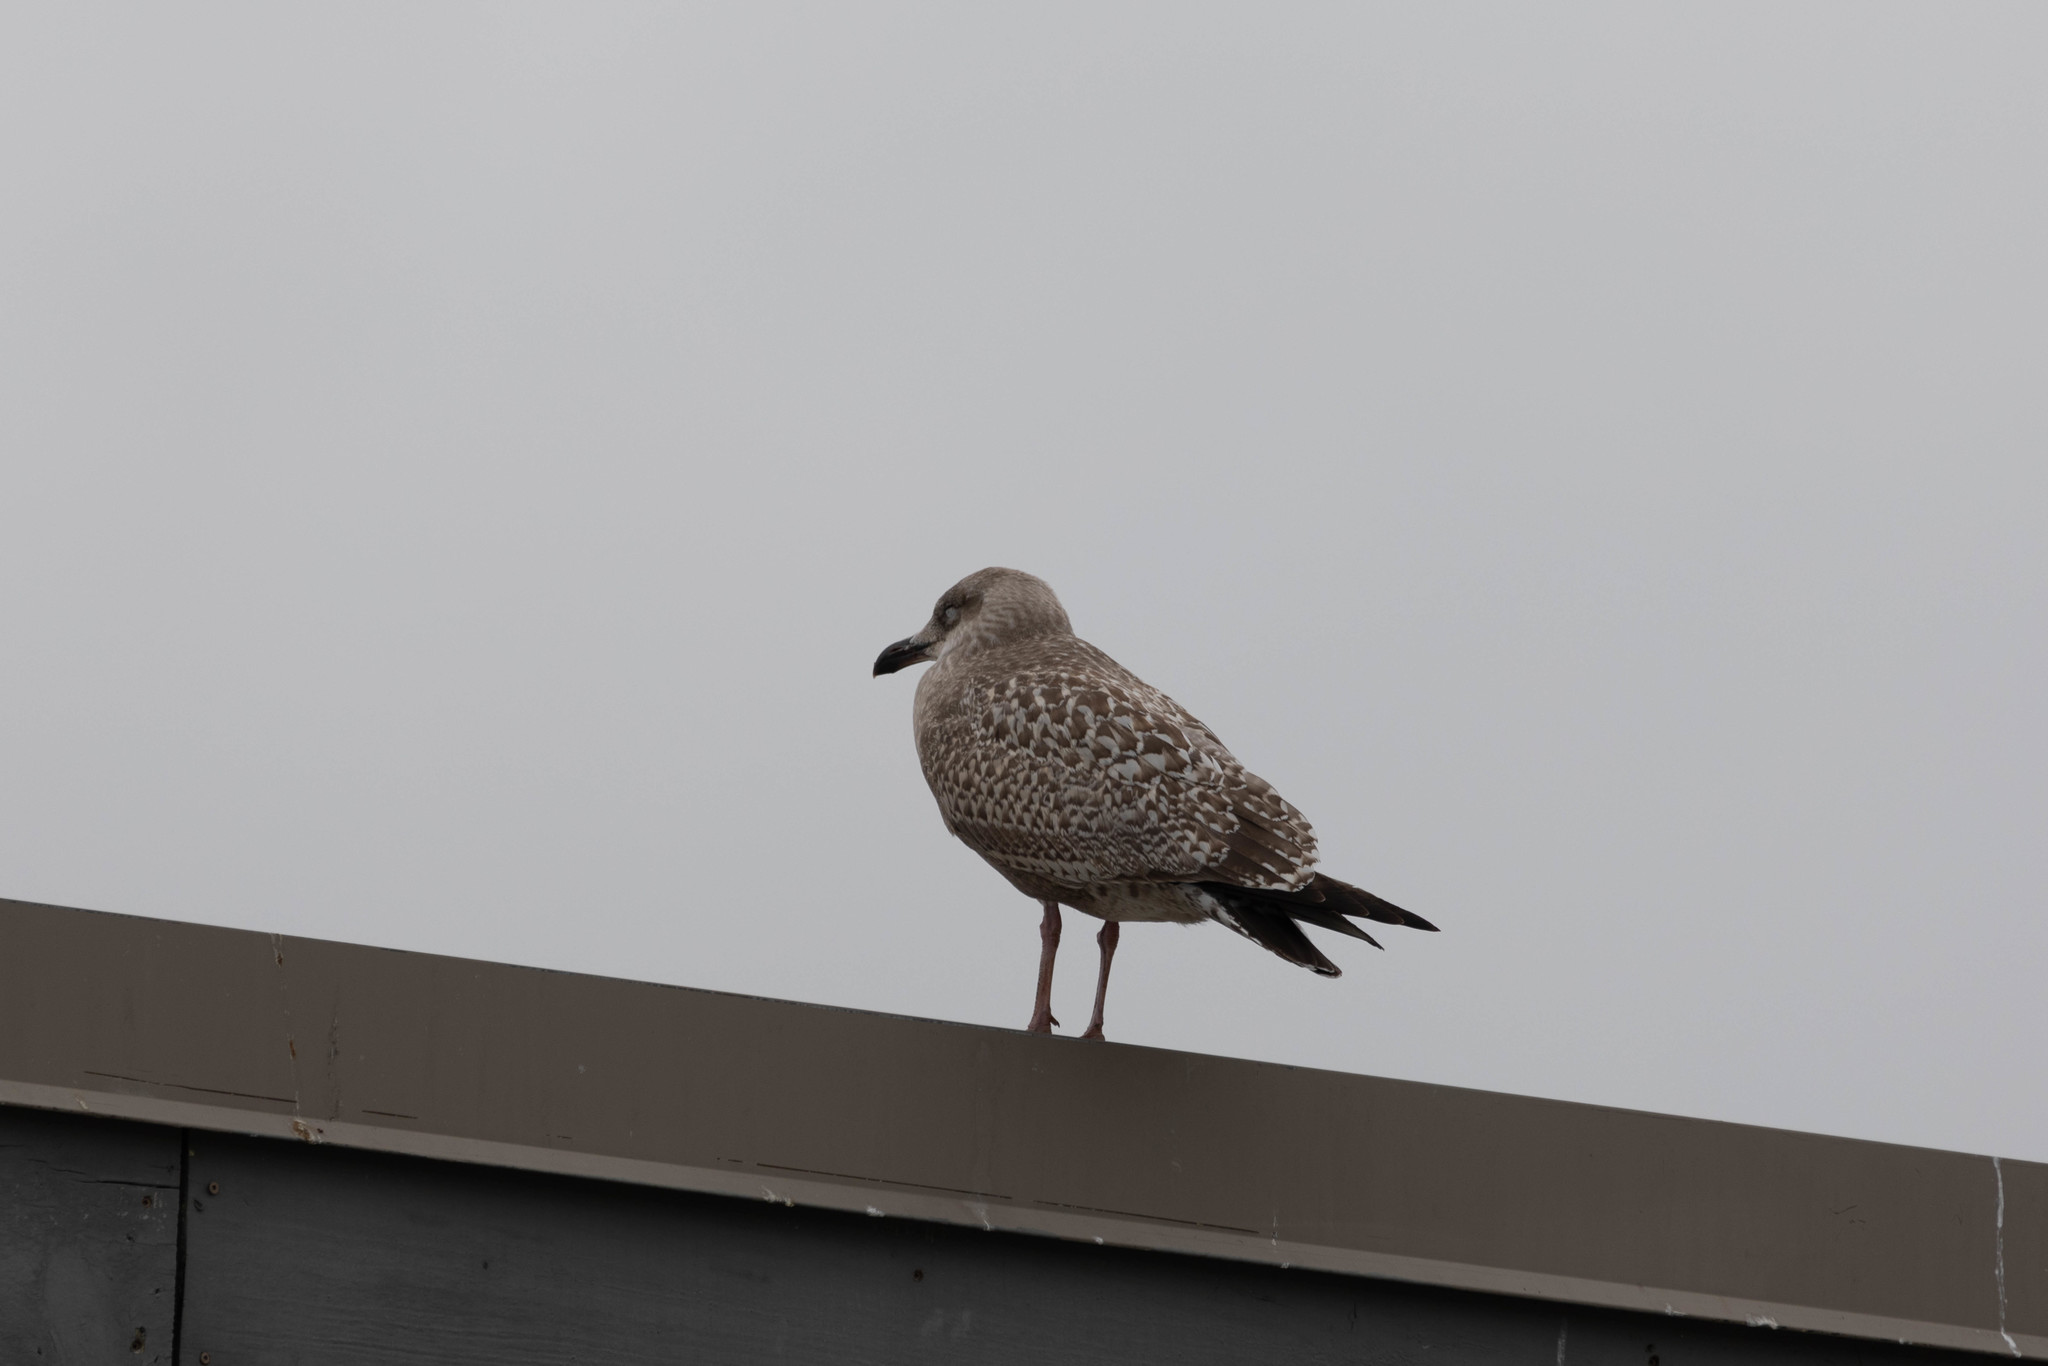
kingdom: Animalia
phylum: Chordata
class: Aves
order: Charadriiformes
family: Laridae
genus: Larus
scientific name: Larus argentatus
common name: Herring gull
